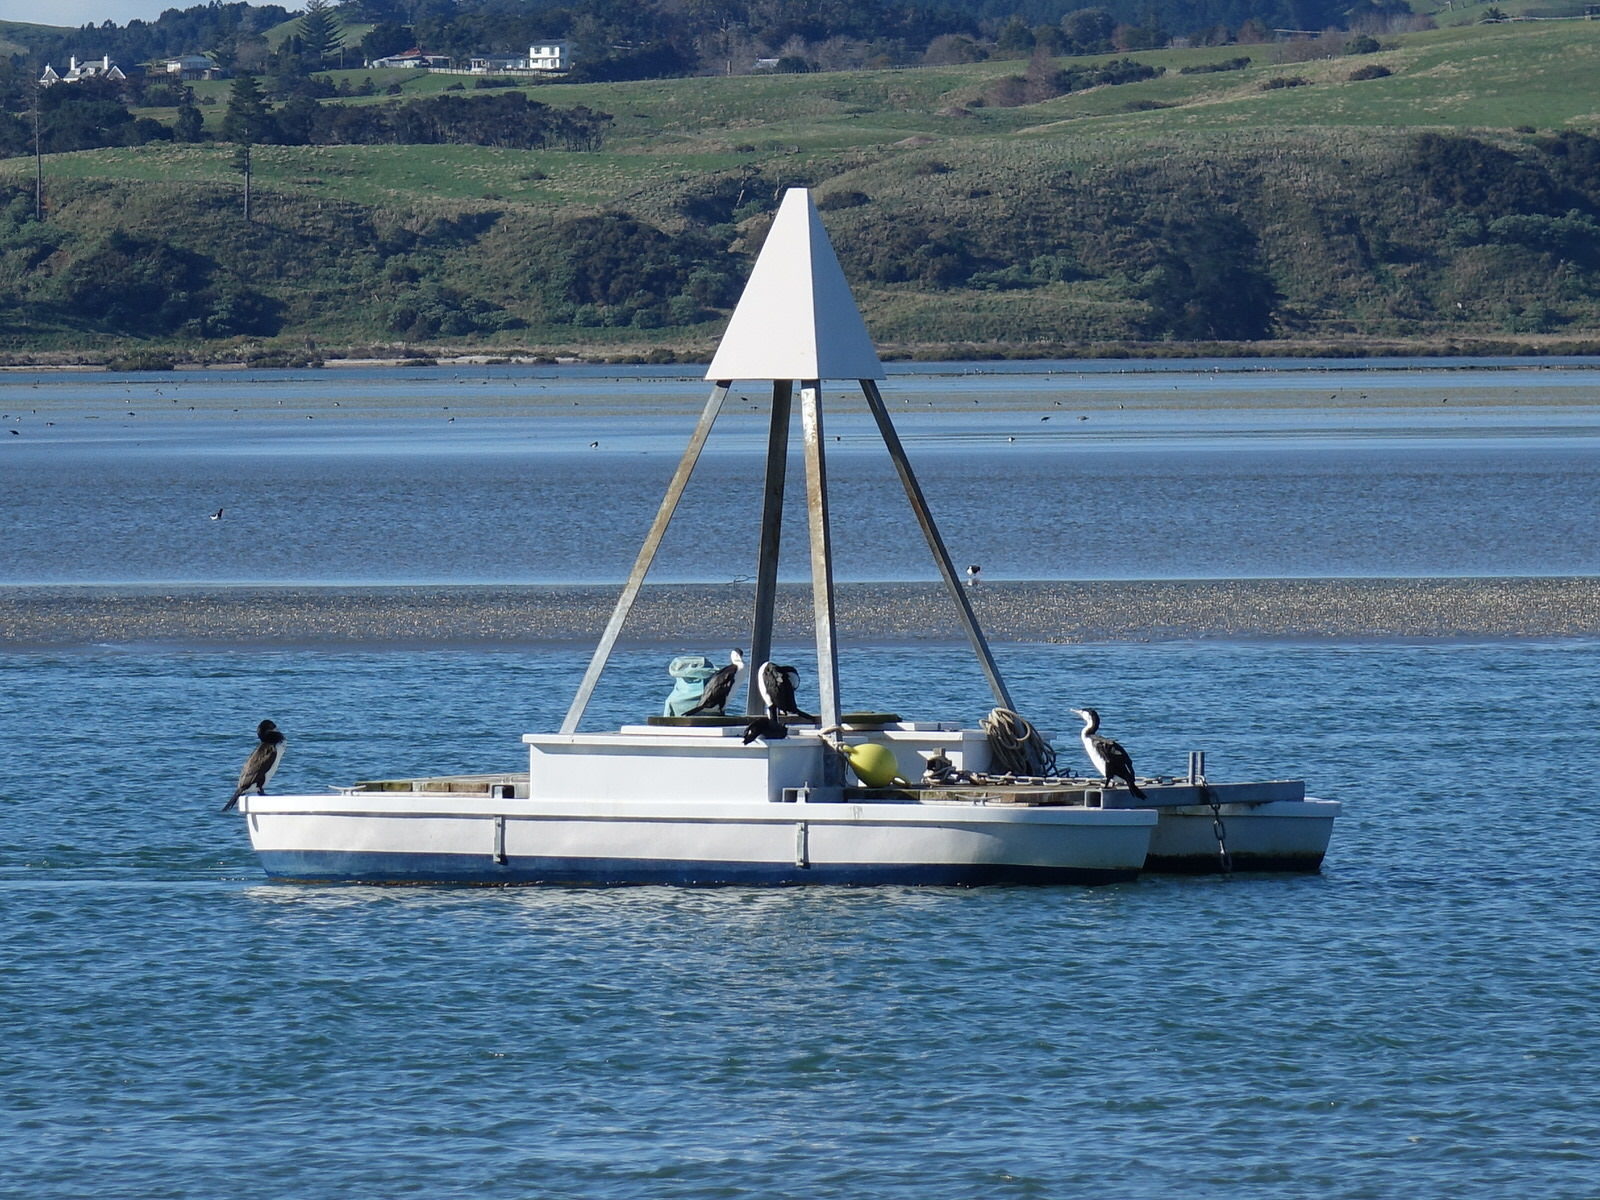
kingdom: Animalia
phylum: Chordata
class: Aves
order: Suliformes
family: Phalacrocoracidae
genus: Phalacrocorax
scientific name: Phalacrocorax varius
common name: Pied cormorant
